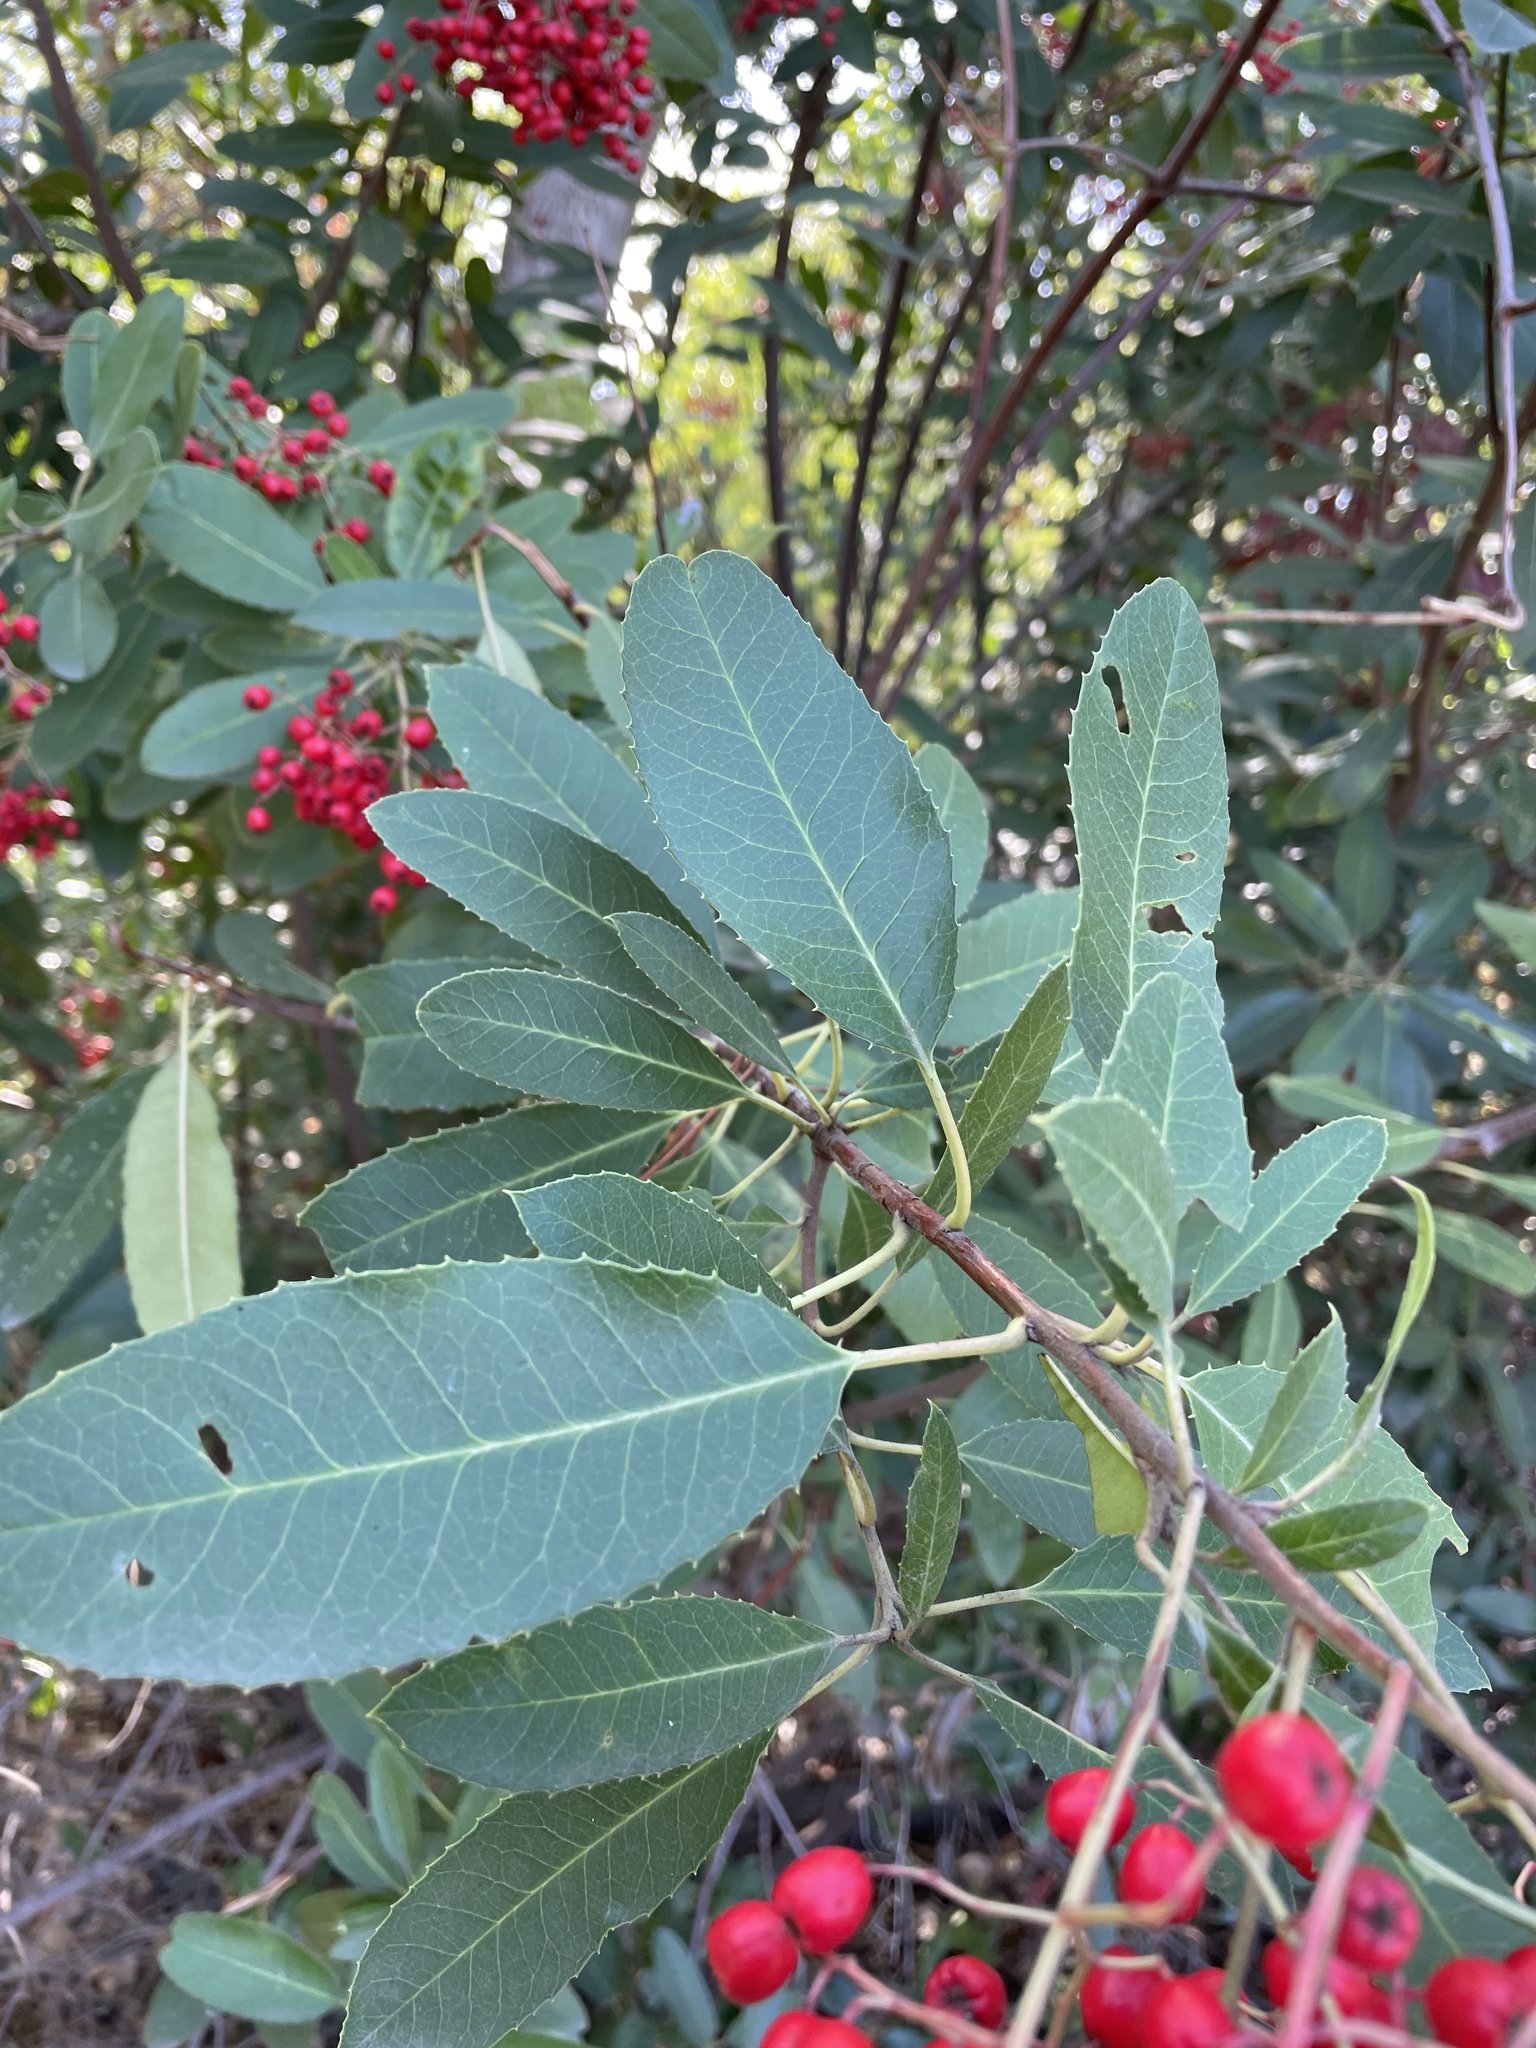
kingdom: Plantae
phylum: Tracheophyta
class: Magnoliopsida
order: Rosales
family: Rosaceae
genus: Heteromeles
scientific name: Heteromeles arbutifolia
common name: California-holly
